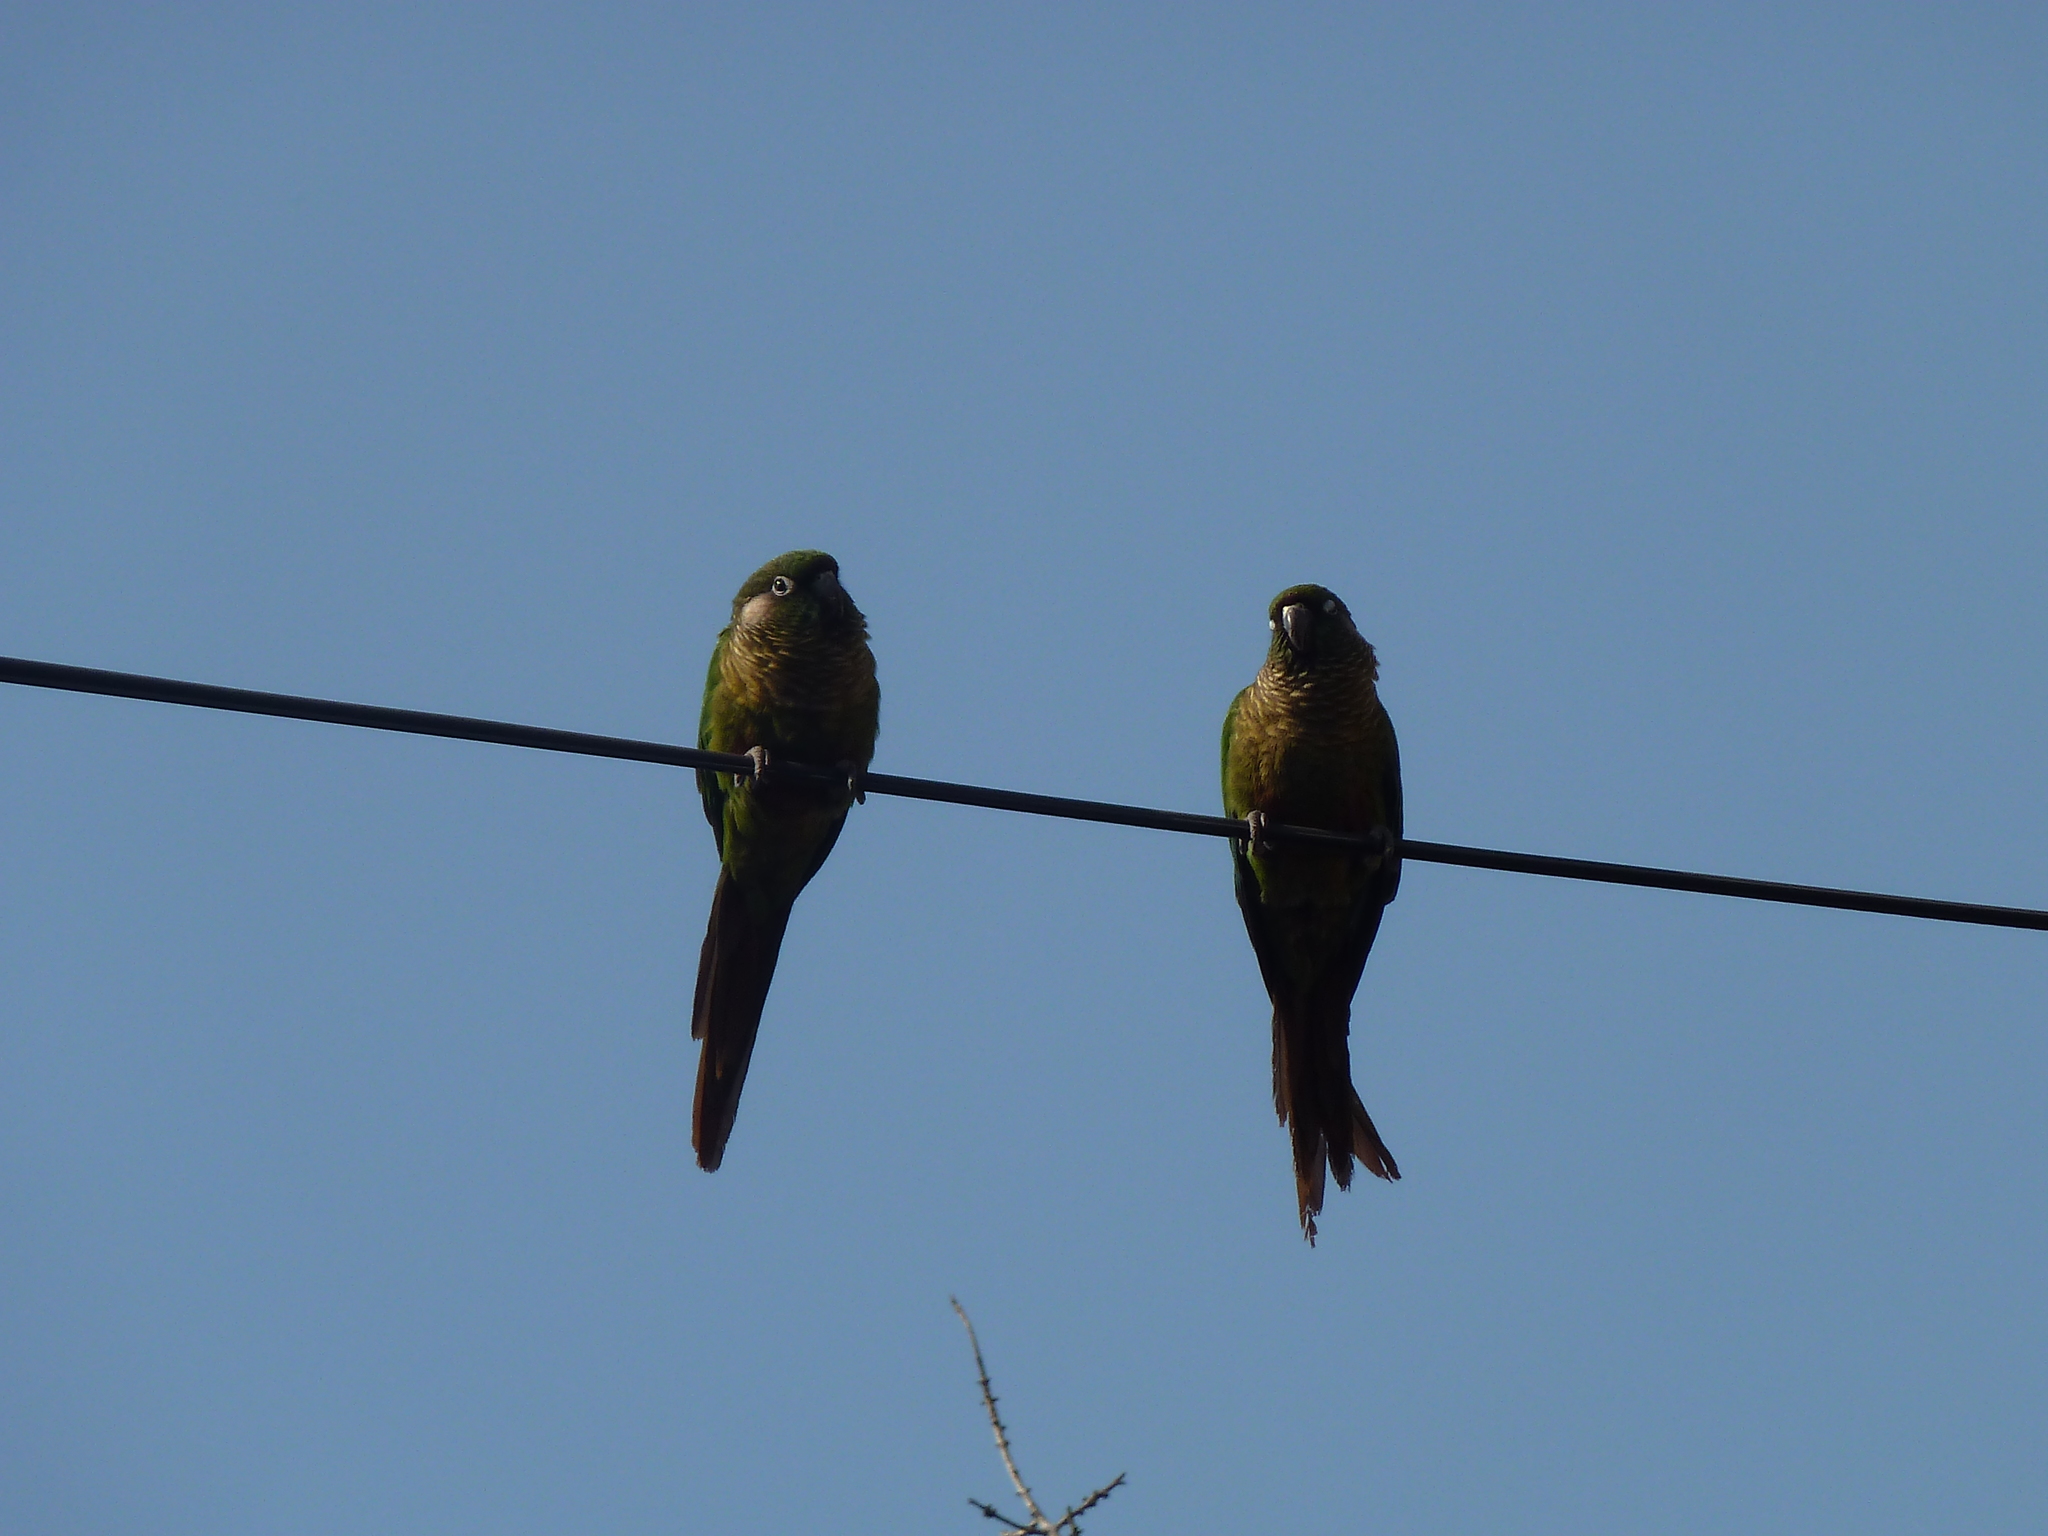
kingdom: Animalia
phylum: Chordata
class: Aves
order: Psittaciformes
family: Psittacidae
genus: Pyrrhura
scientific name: Pyrrhura frontalis
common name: Maroon-bellied parakeet
